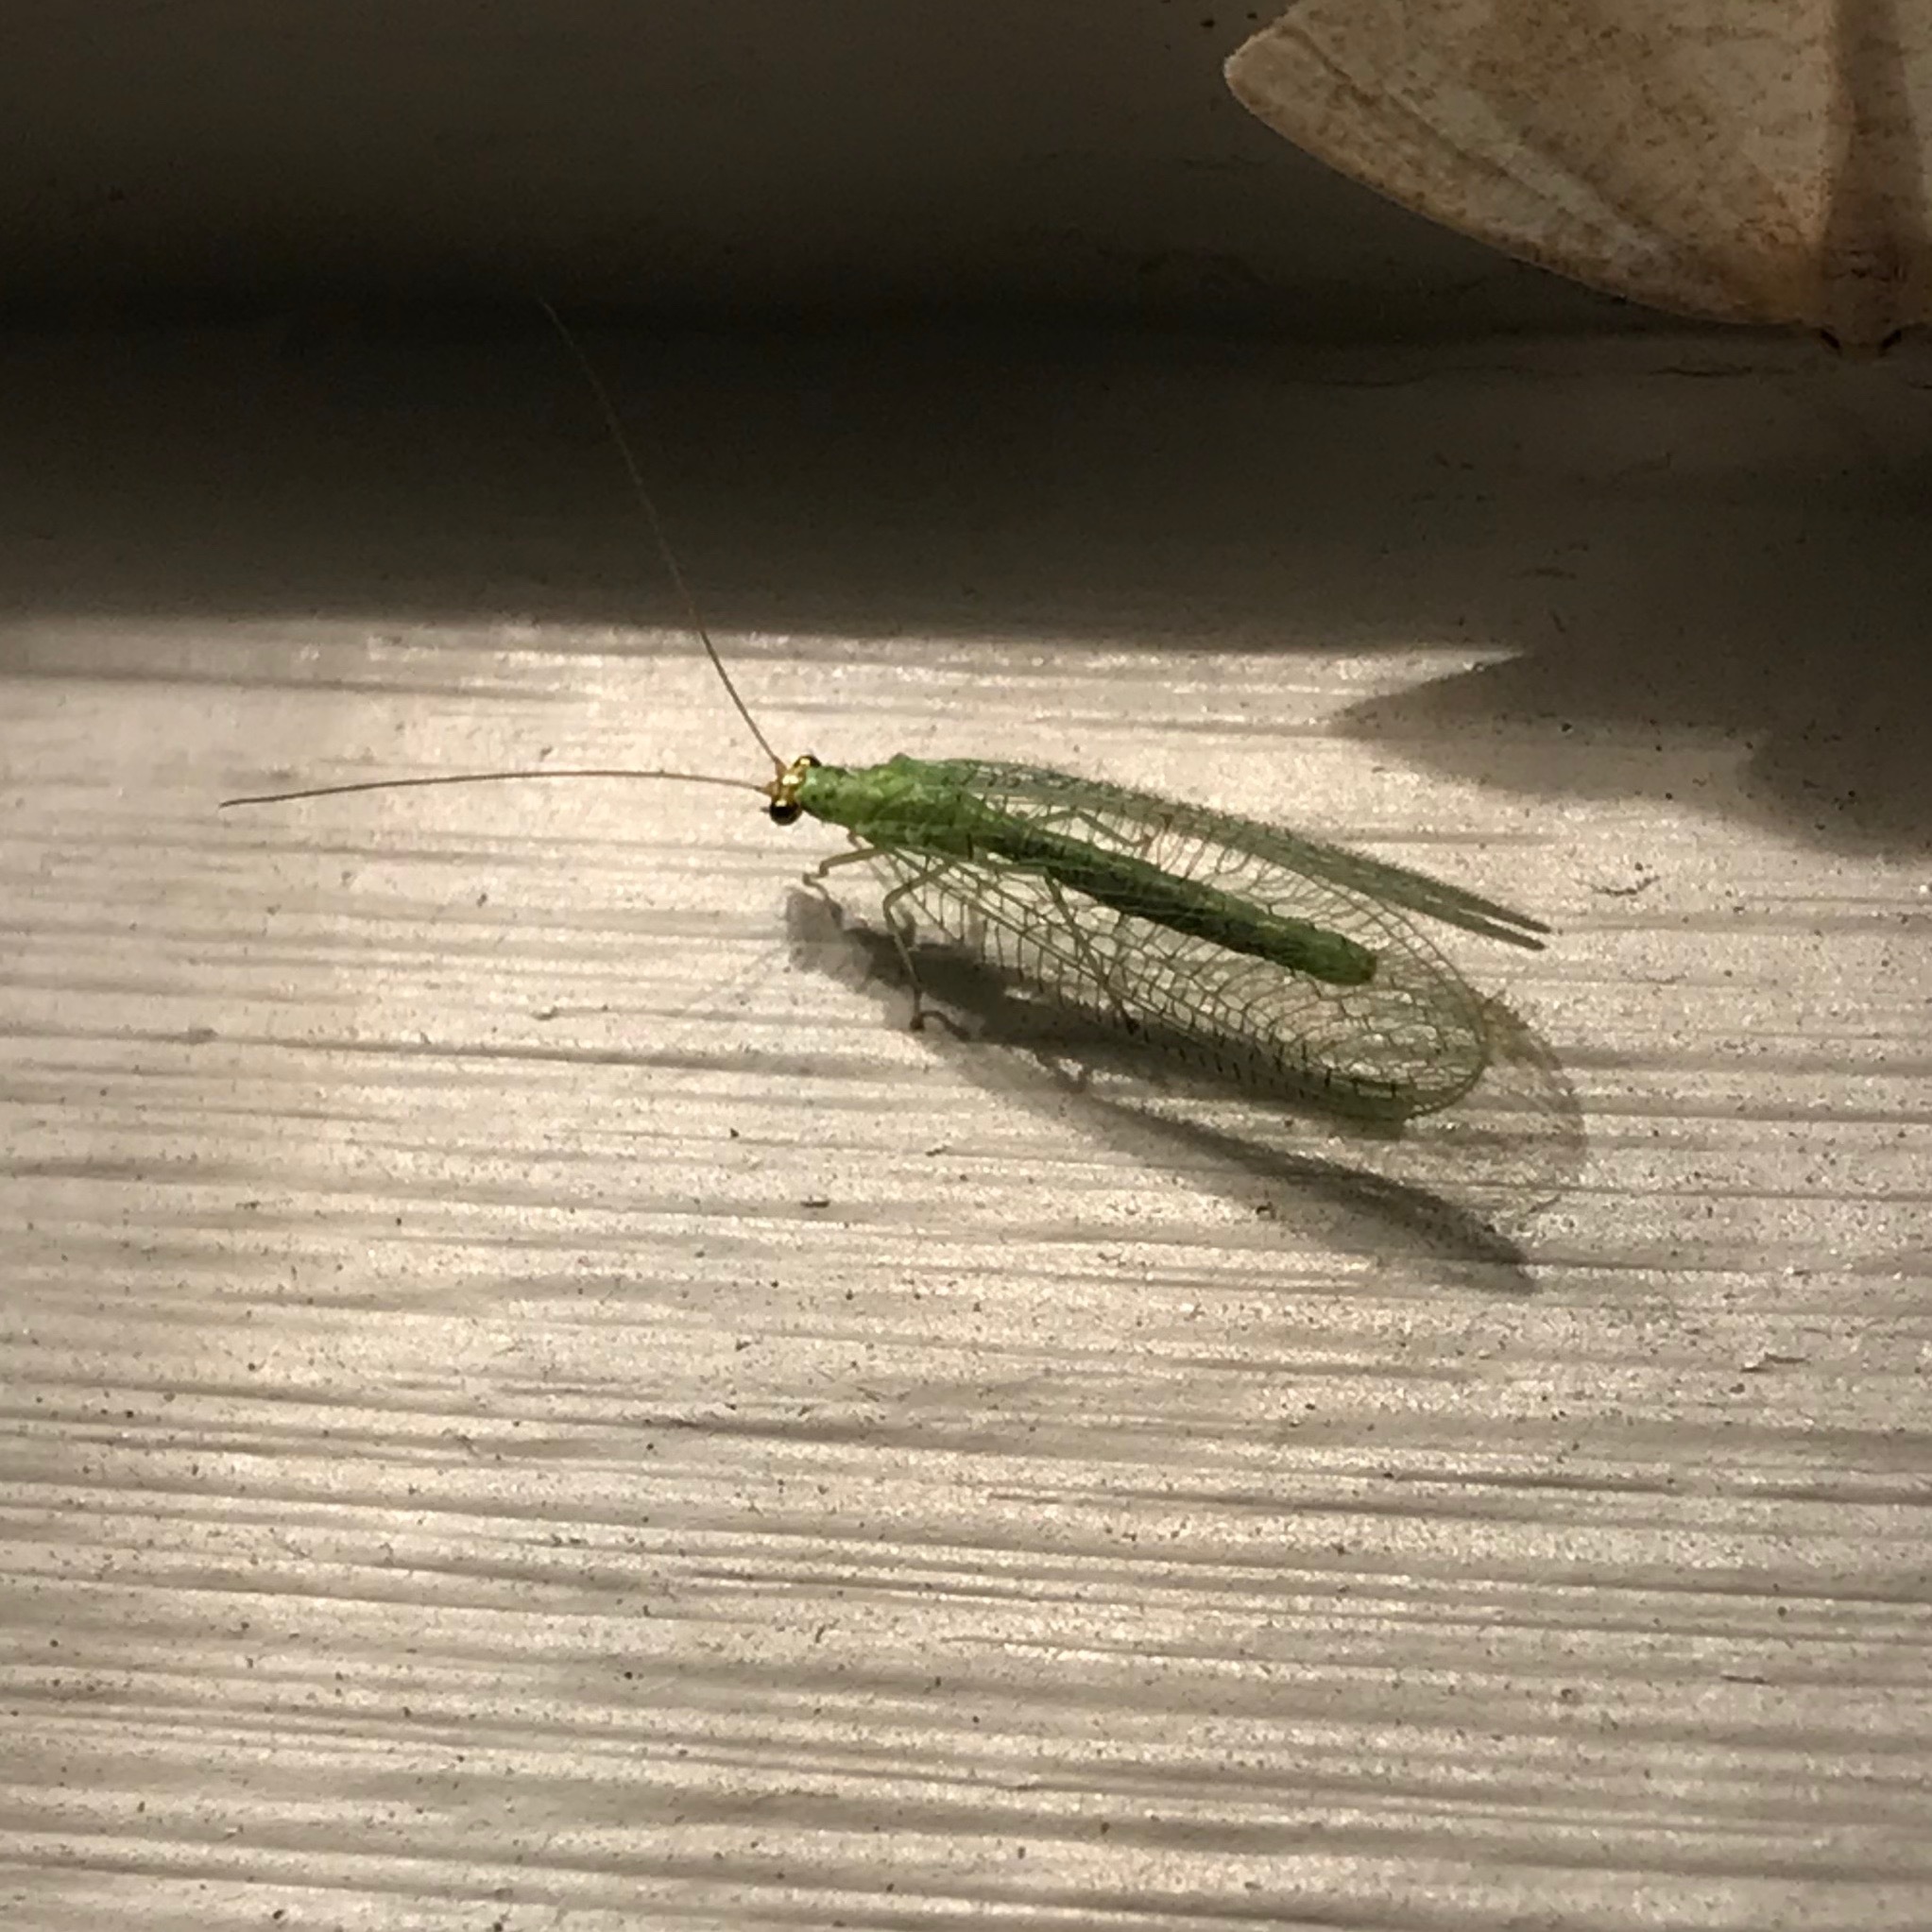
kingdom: Animalia
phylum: Arthropoda
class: Insecta
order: Neuroptera
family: Chrysopidae
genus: Chrysopa
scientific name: Chrysopa oculata
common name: Golden-eyed lacewing
